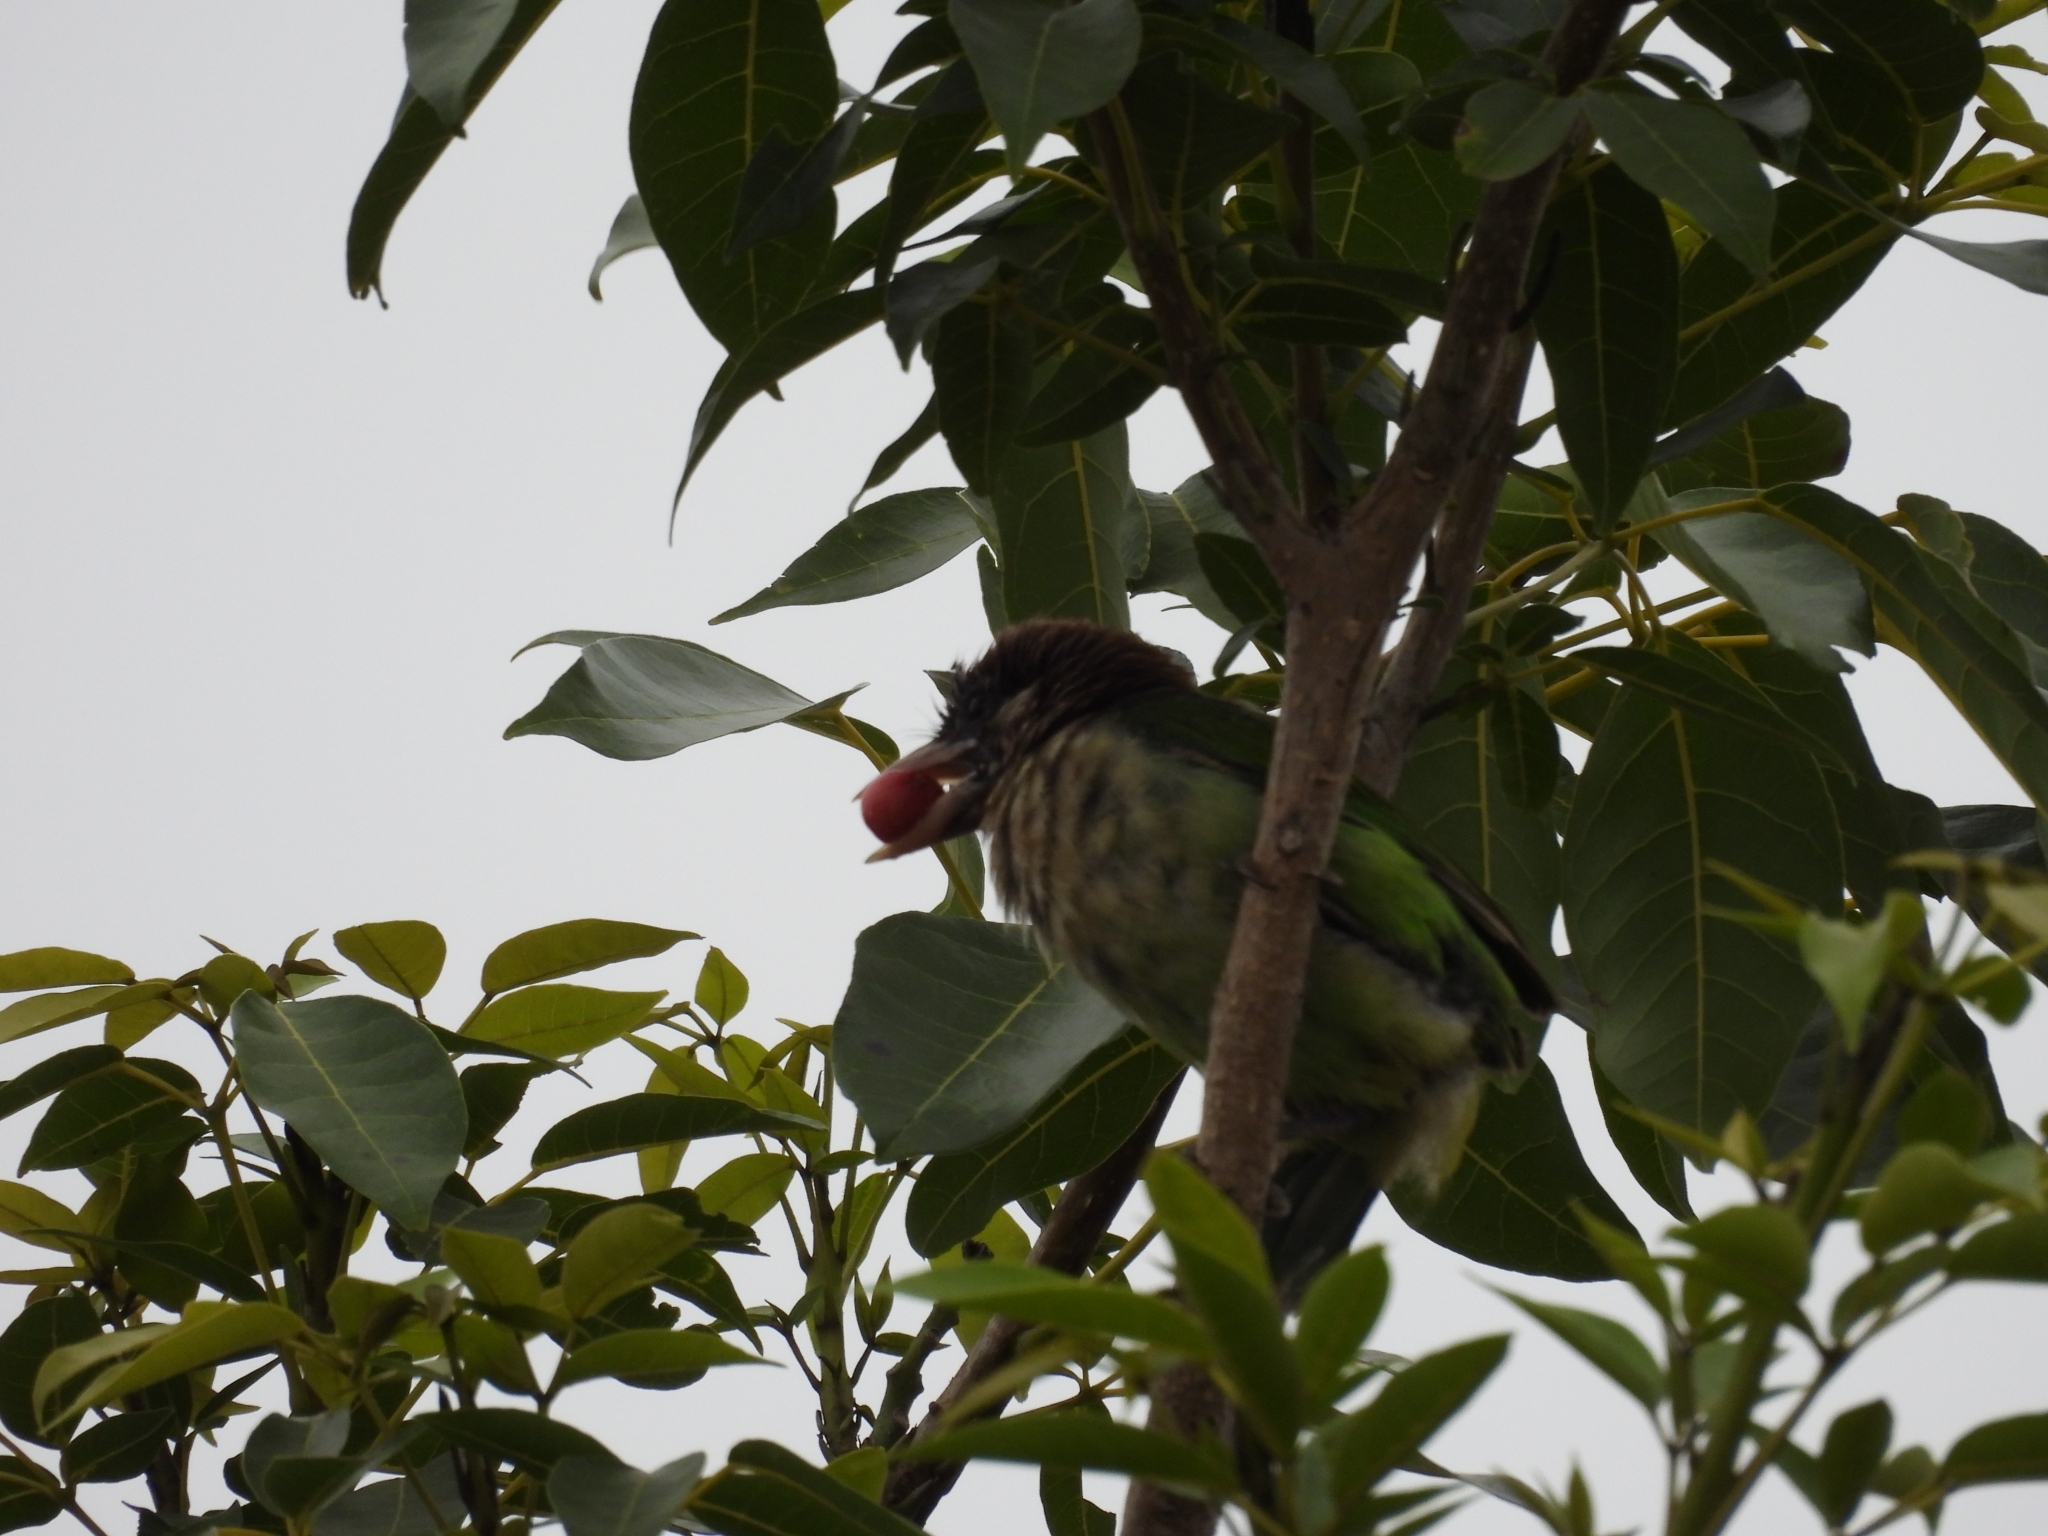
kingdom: Animalia
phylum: Chordata
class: Aves
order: Piciformes
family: Megalaimidae
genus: Psilopogon
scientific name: Psilopogon viridis
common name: White-cheeked barbet
